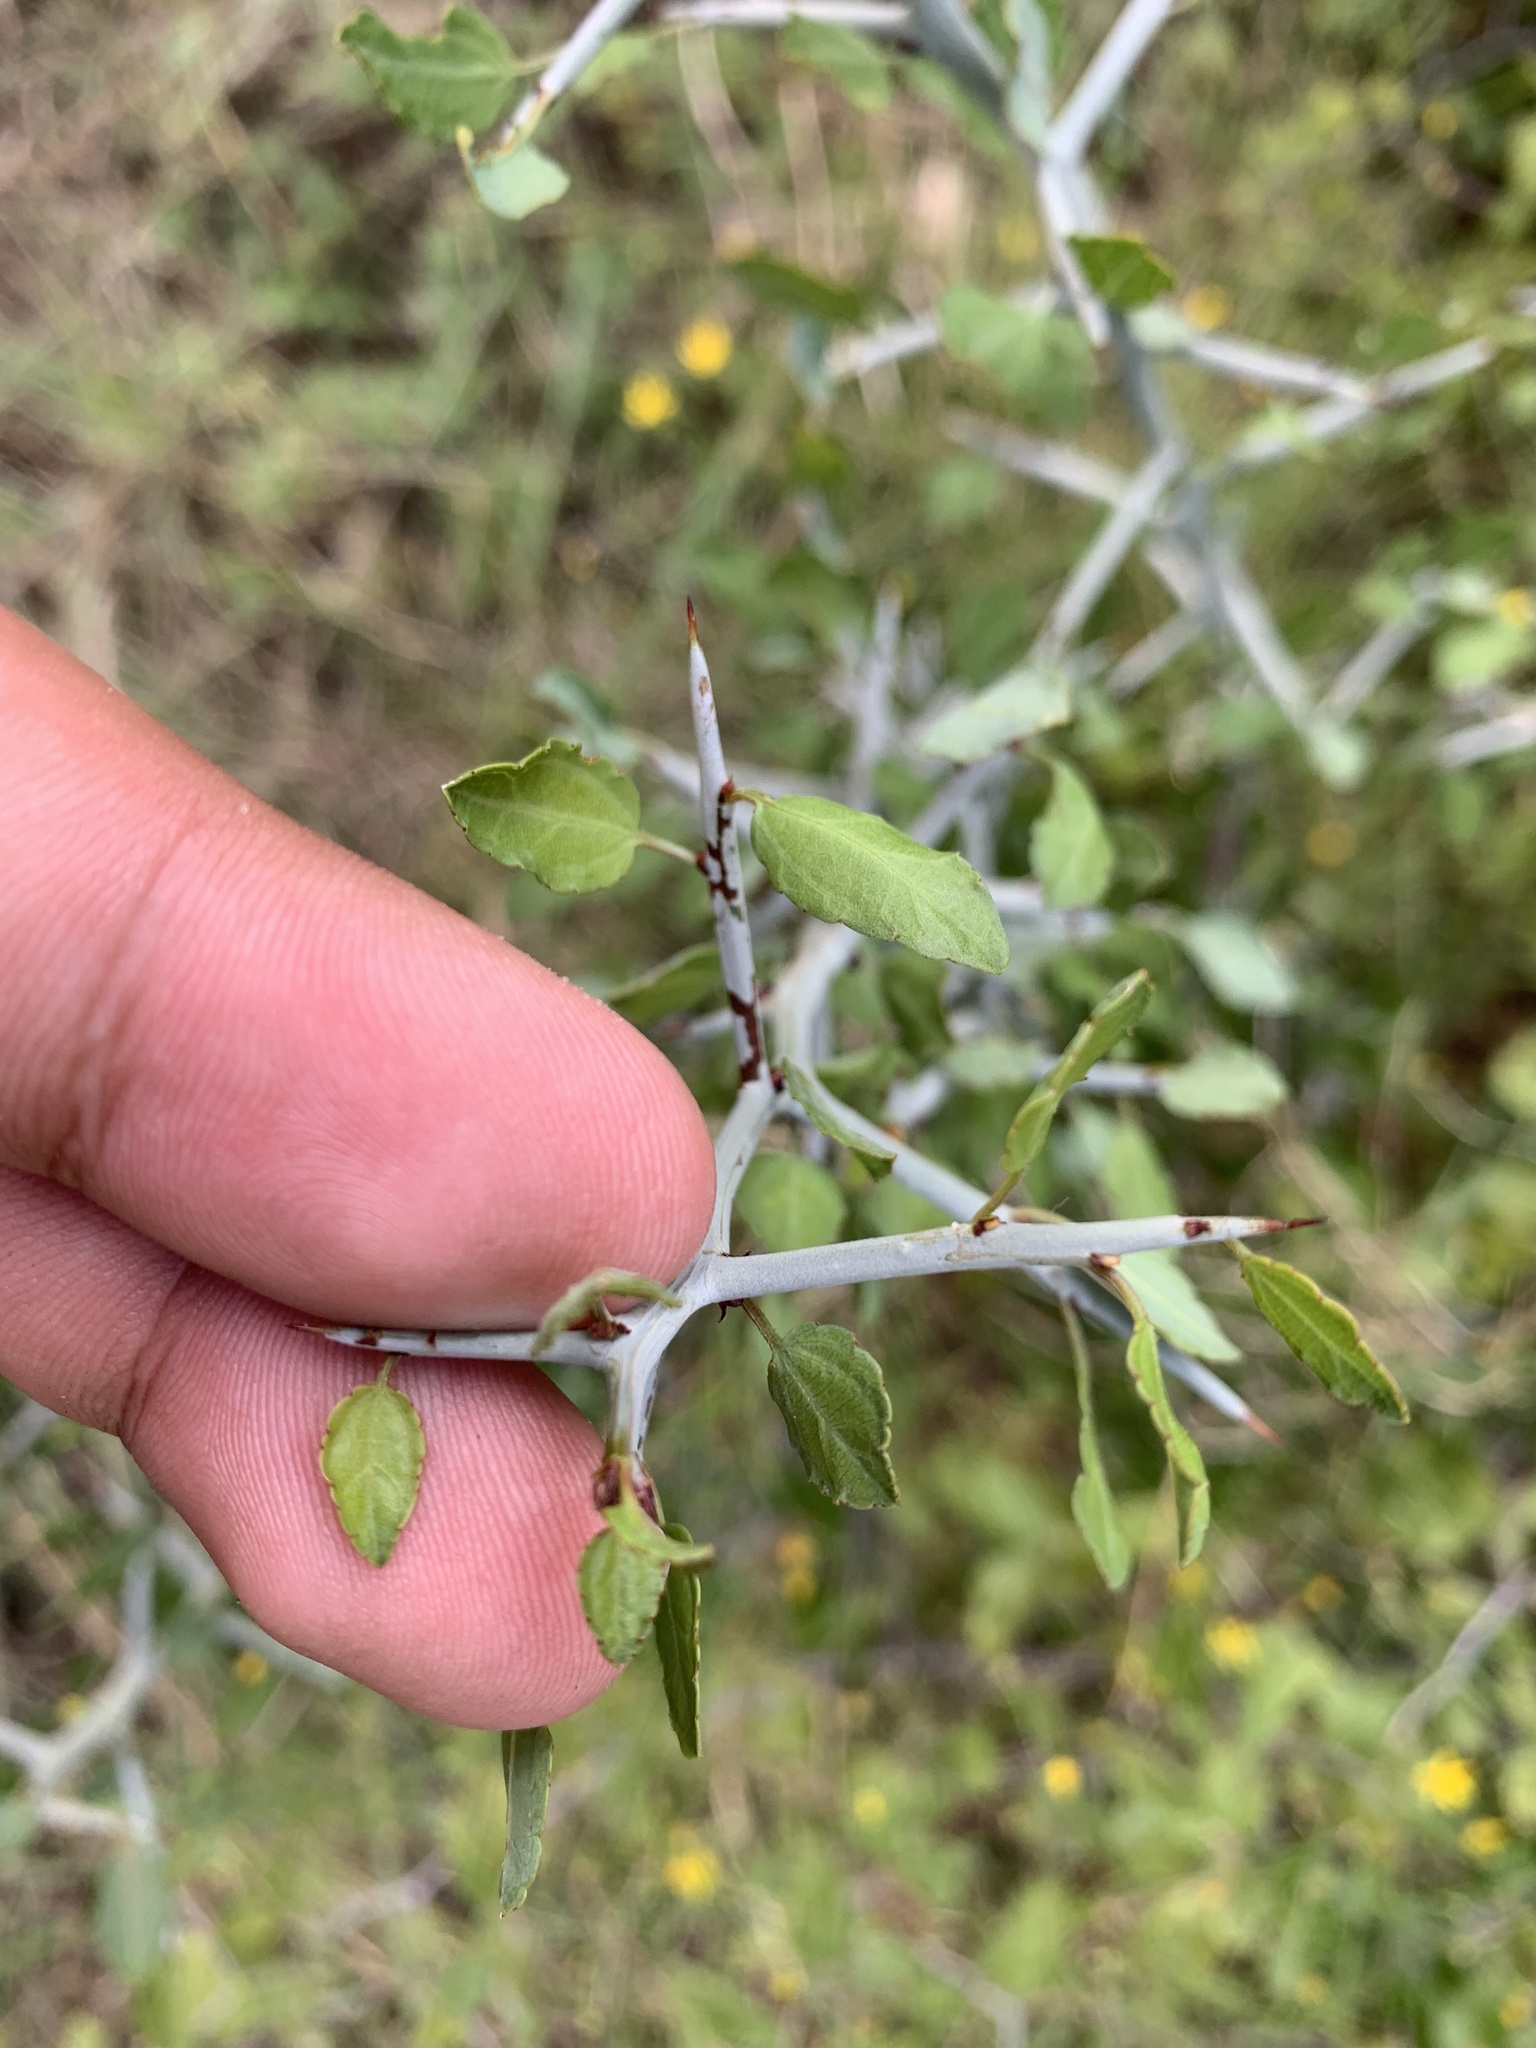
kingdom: Plantae
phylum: Tracheophyta
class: Magnoliopsida
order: Rosales
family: Rhamnaceae
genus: Sarcomphalus
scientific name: Sarcomphalus obtusifolius
